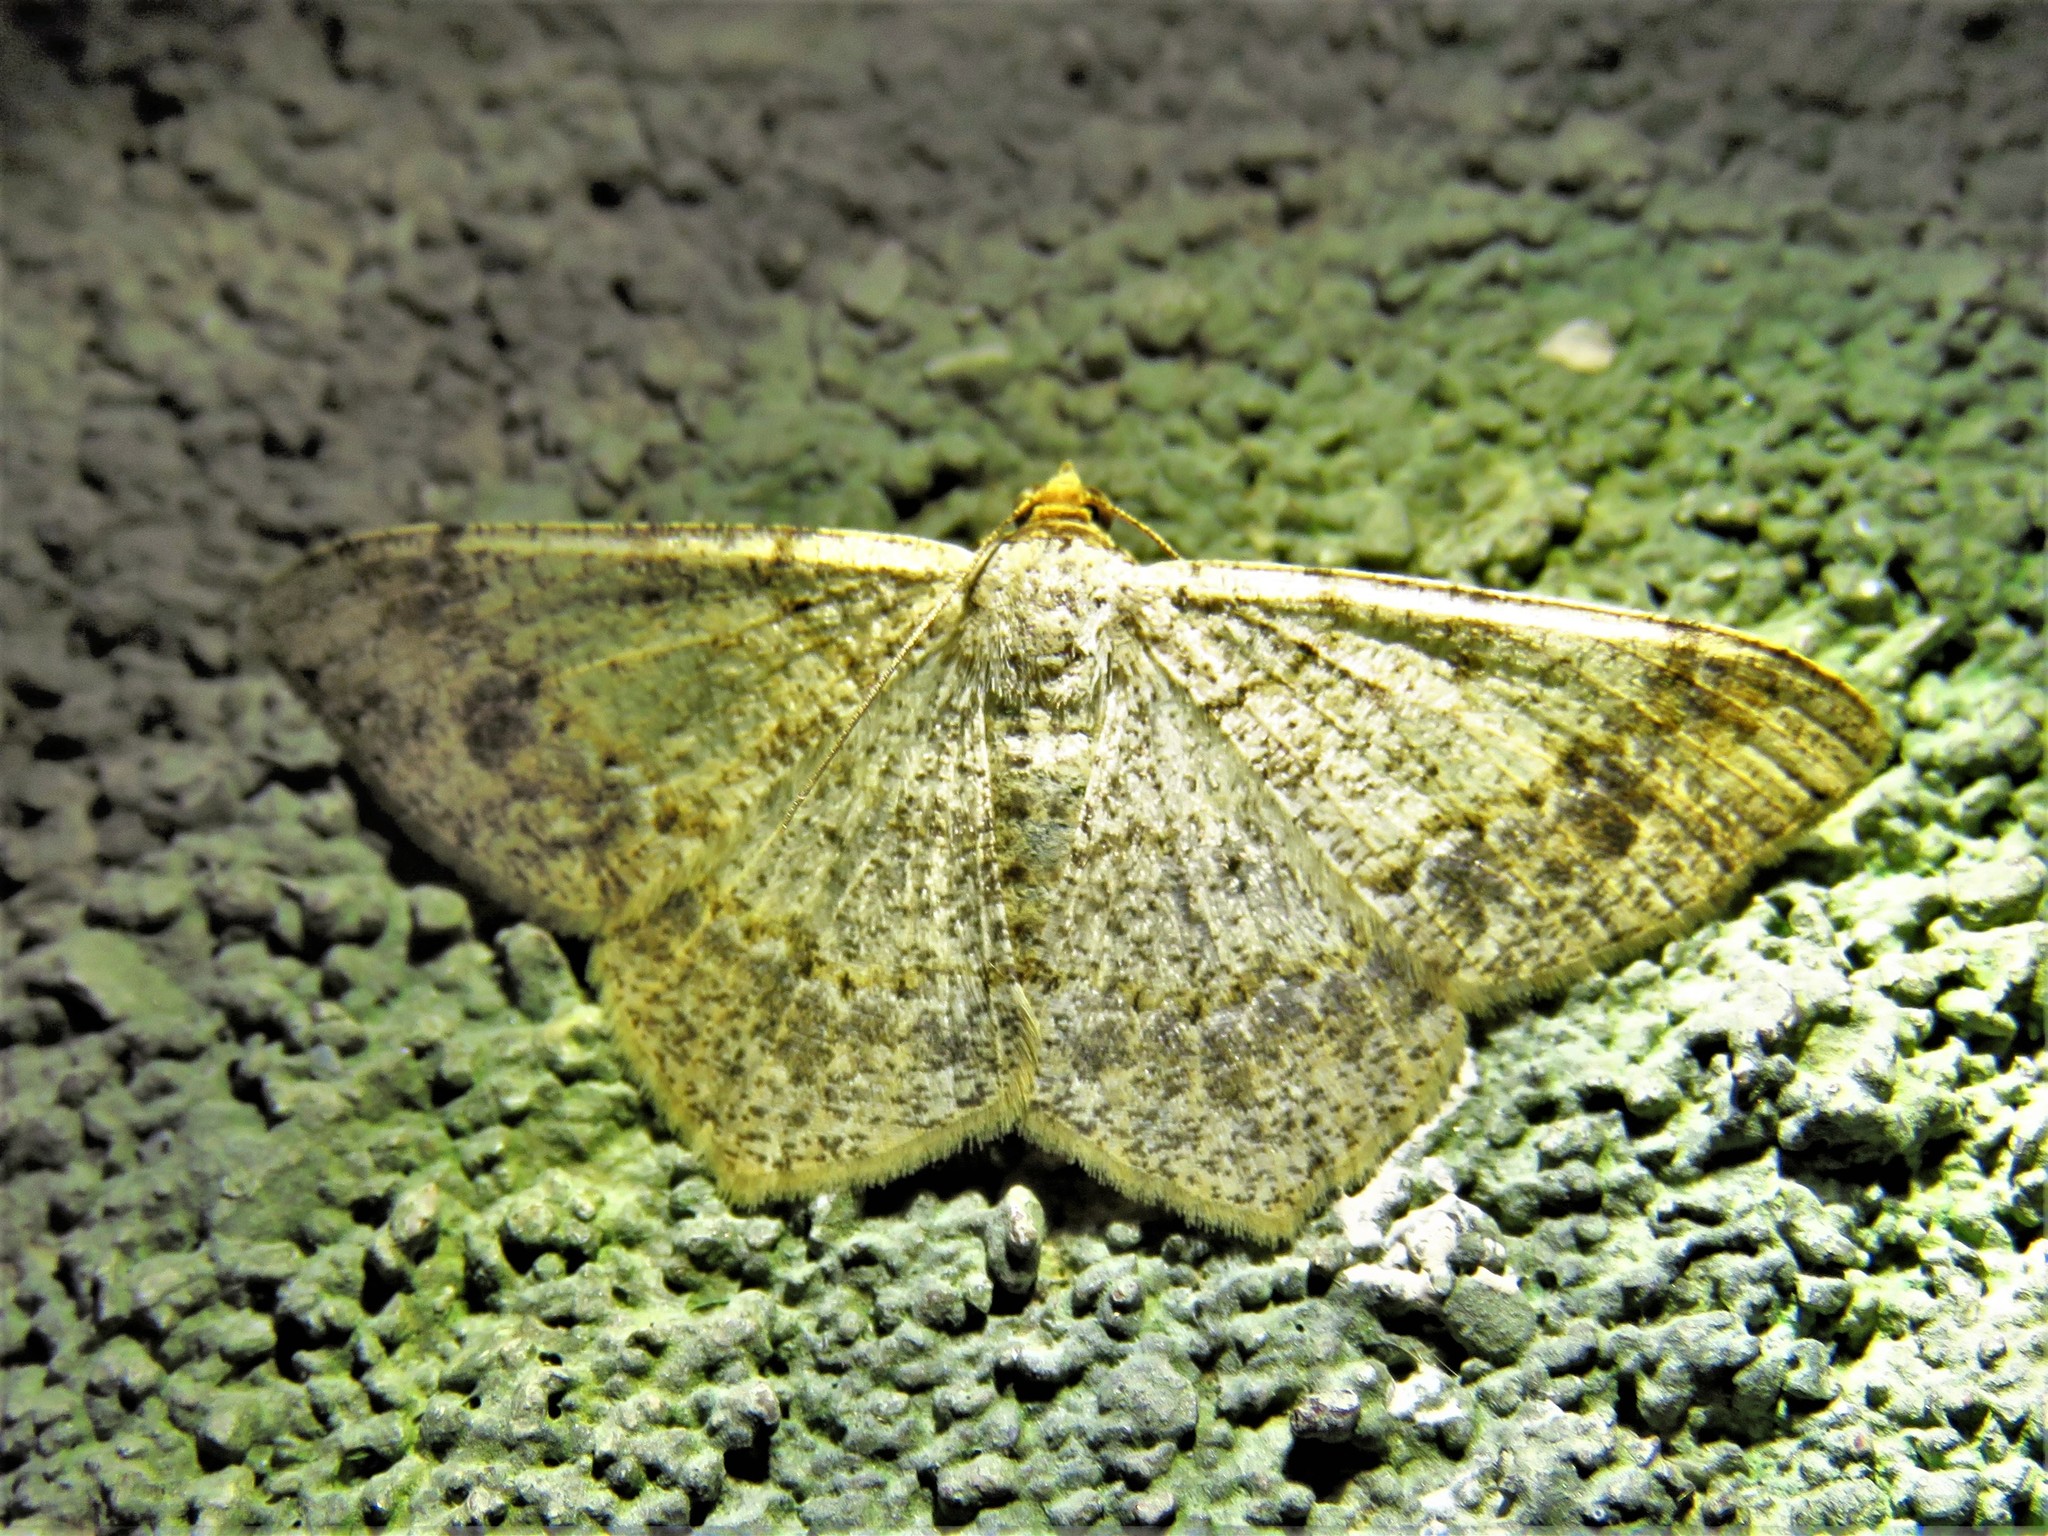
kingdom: Animalia
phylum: Arthropoda
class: Insecta
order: Lepidoptera
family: Geometridae
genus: Macaria
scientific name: Macaria abydata
